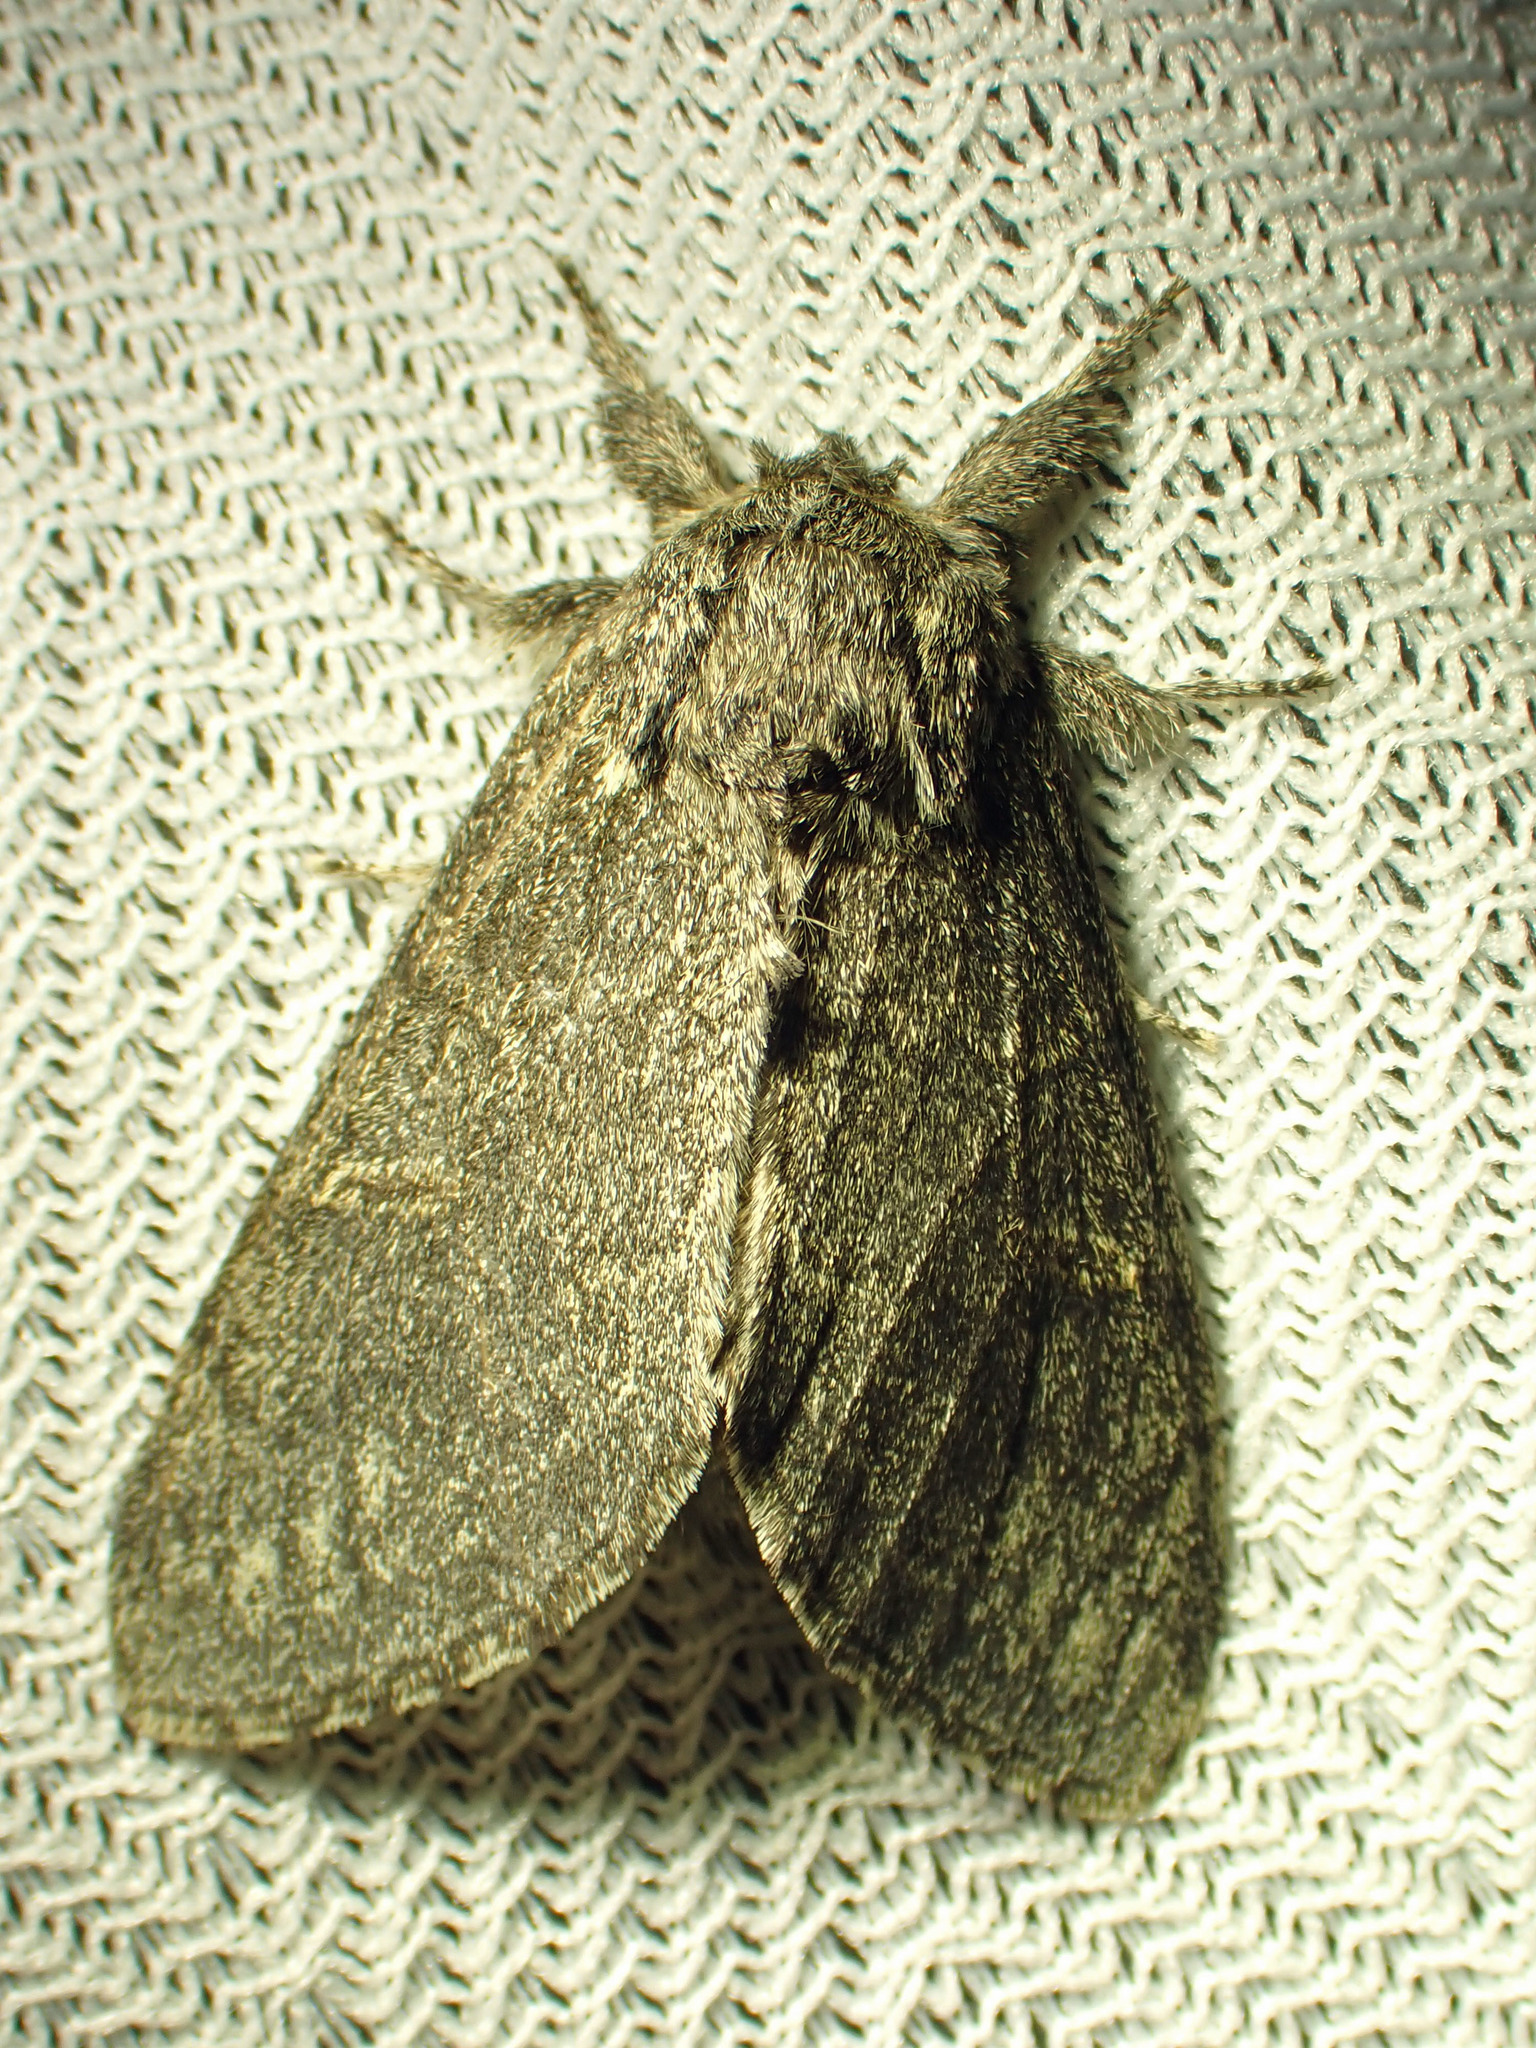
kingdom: Animalia
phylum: Arthropoda
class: Insecta
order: Lepidoptera
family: Notodontidae
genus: Notodonta
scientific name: Notodonta torva
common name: Large dark prominent
